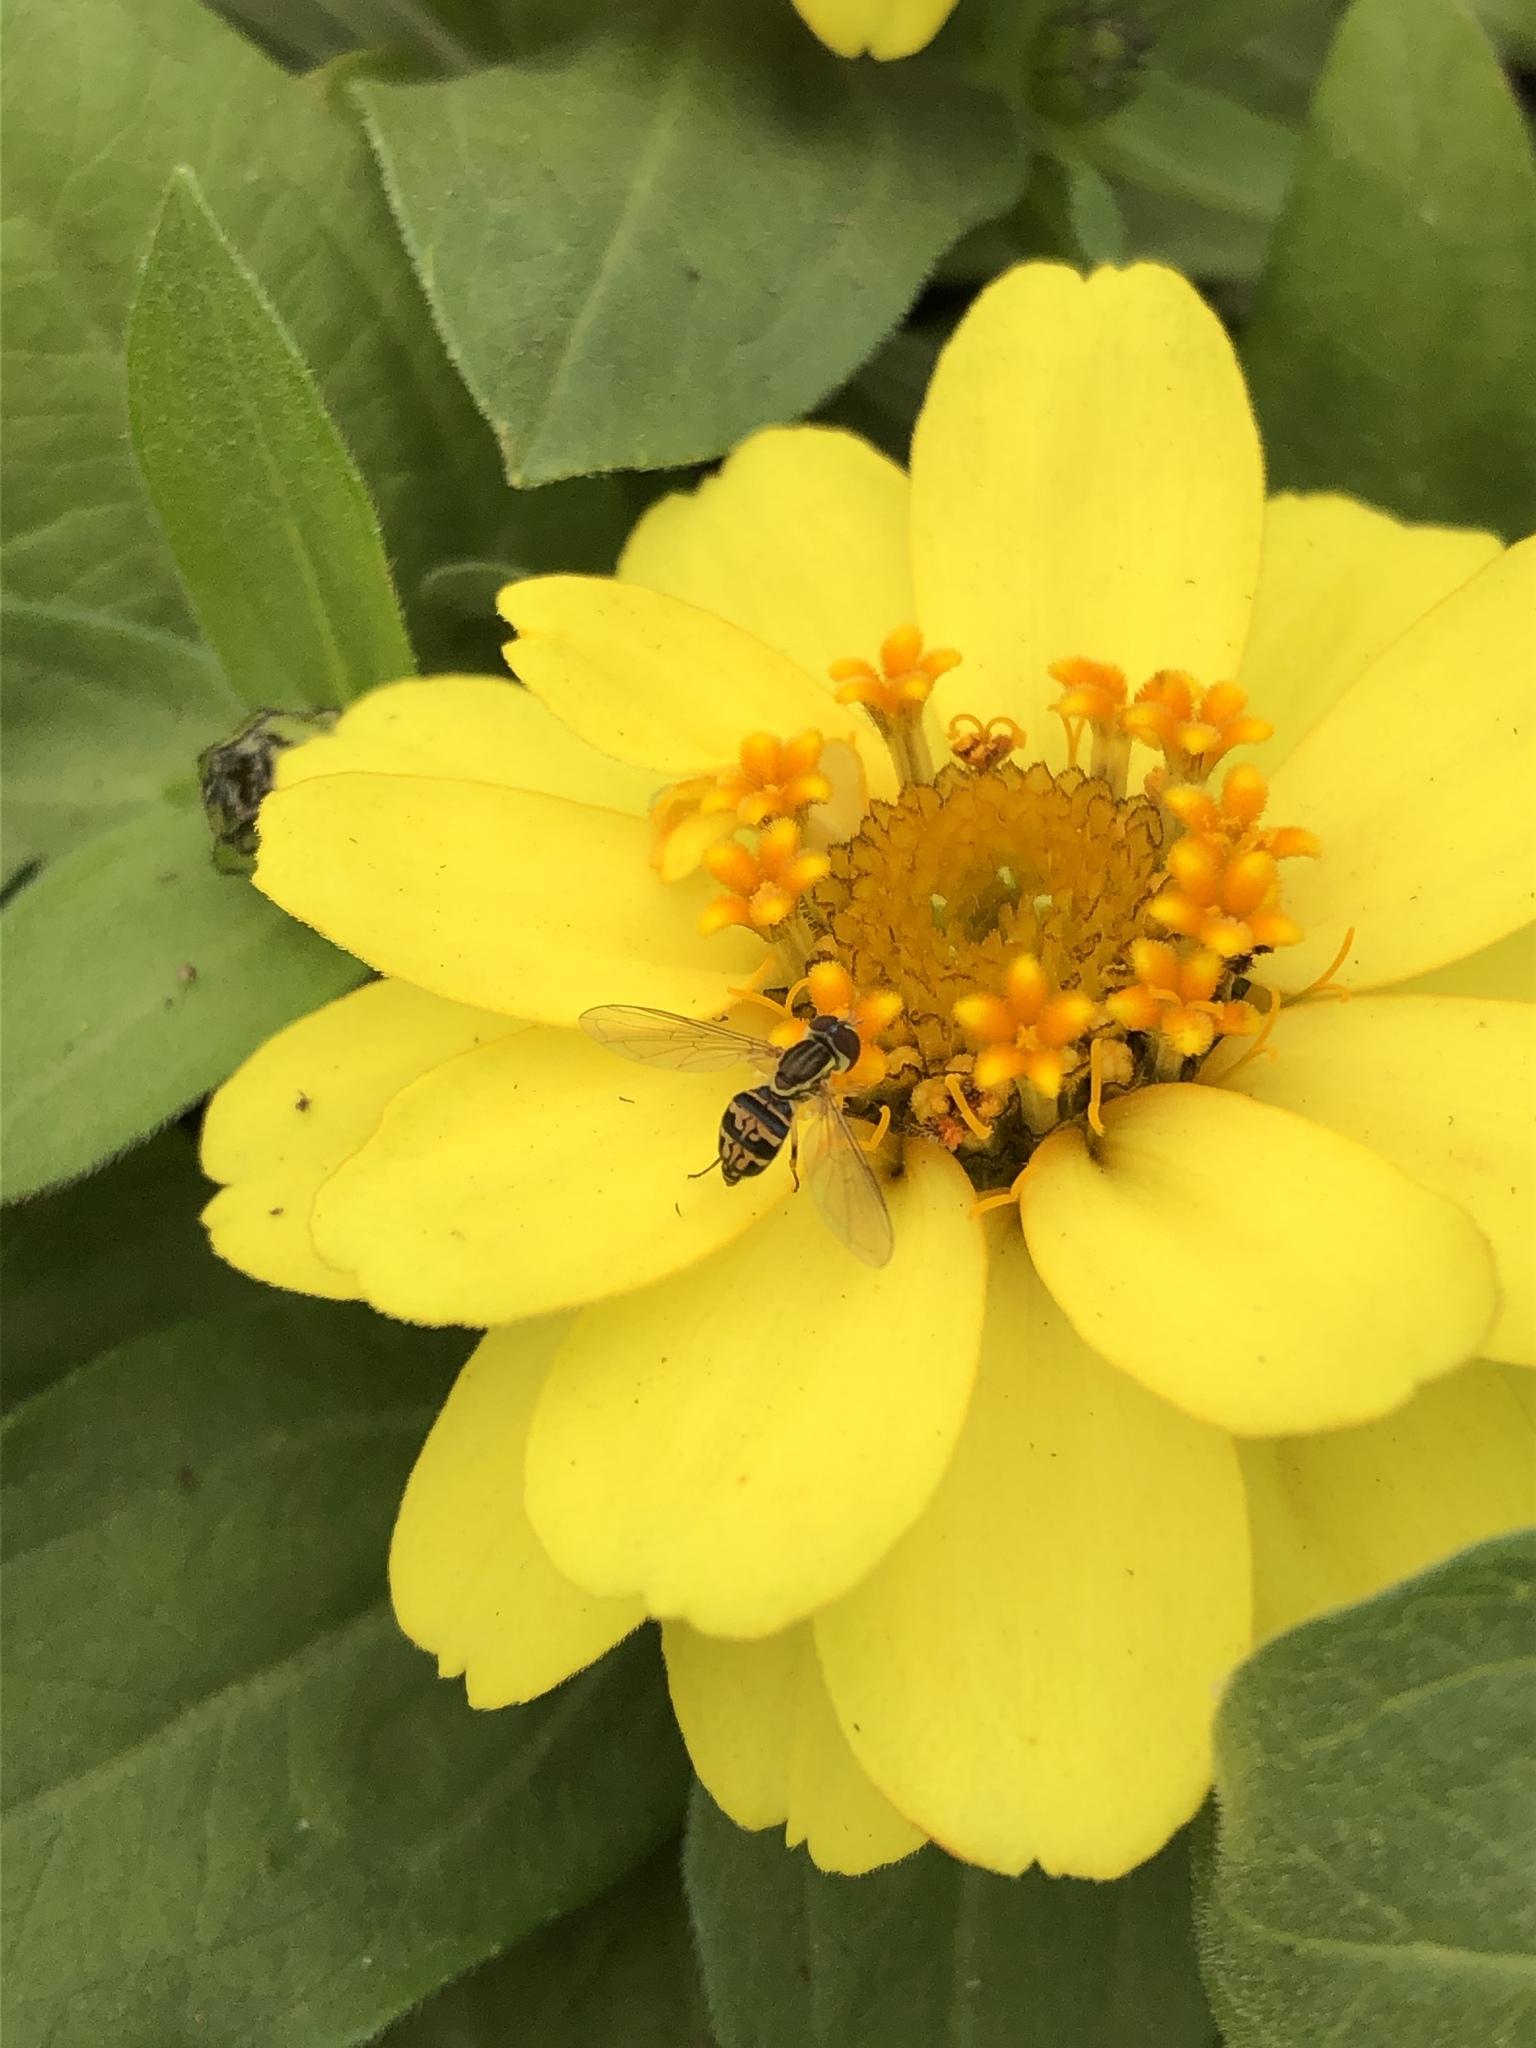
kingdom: Animalia
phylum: Arthropoda
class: Insecta
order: Diptera
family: Syrphidae
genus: Toxomerus
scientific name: Toxomerus geminatus
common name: Eastern calligrapher
